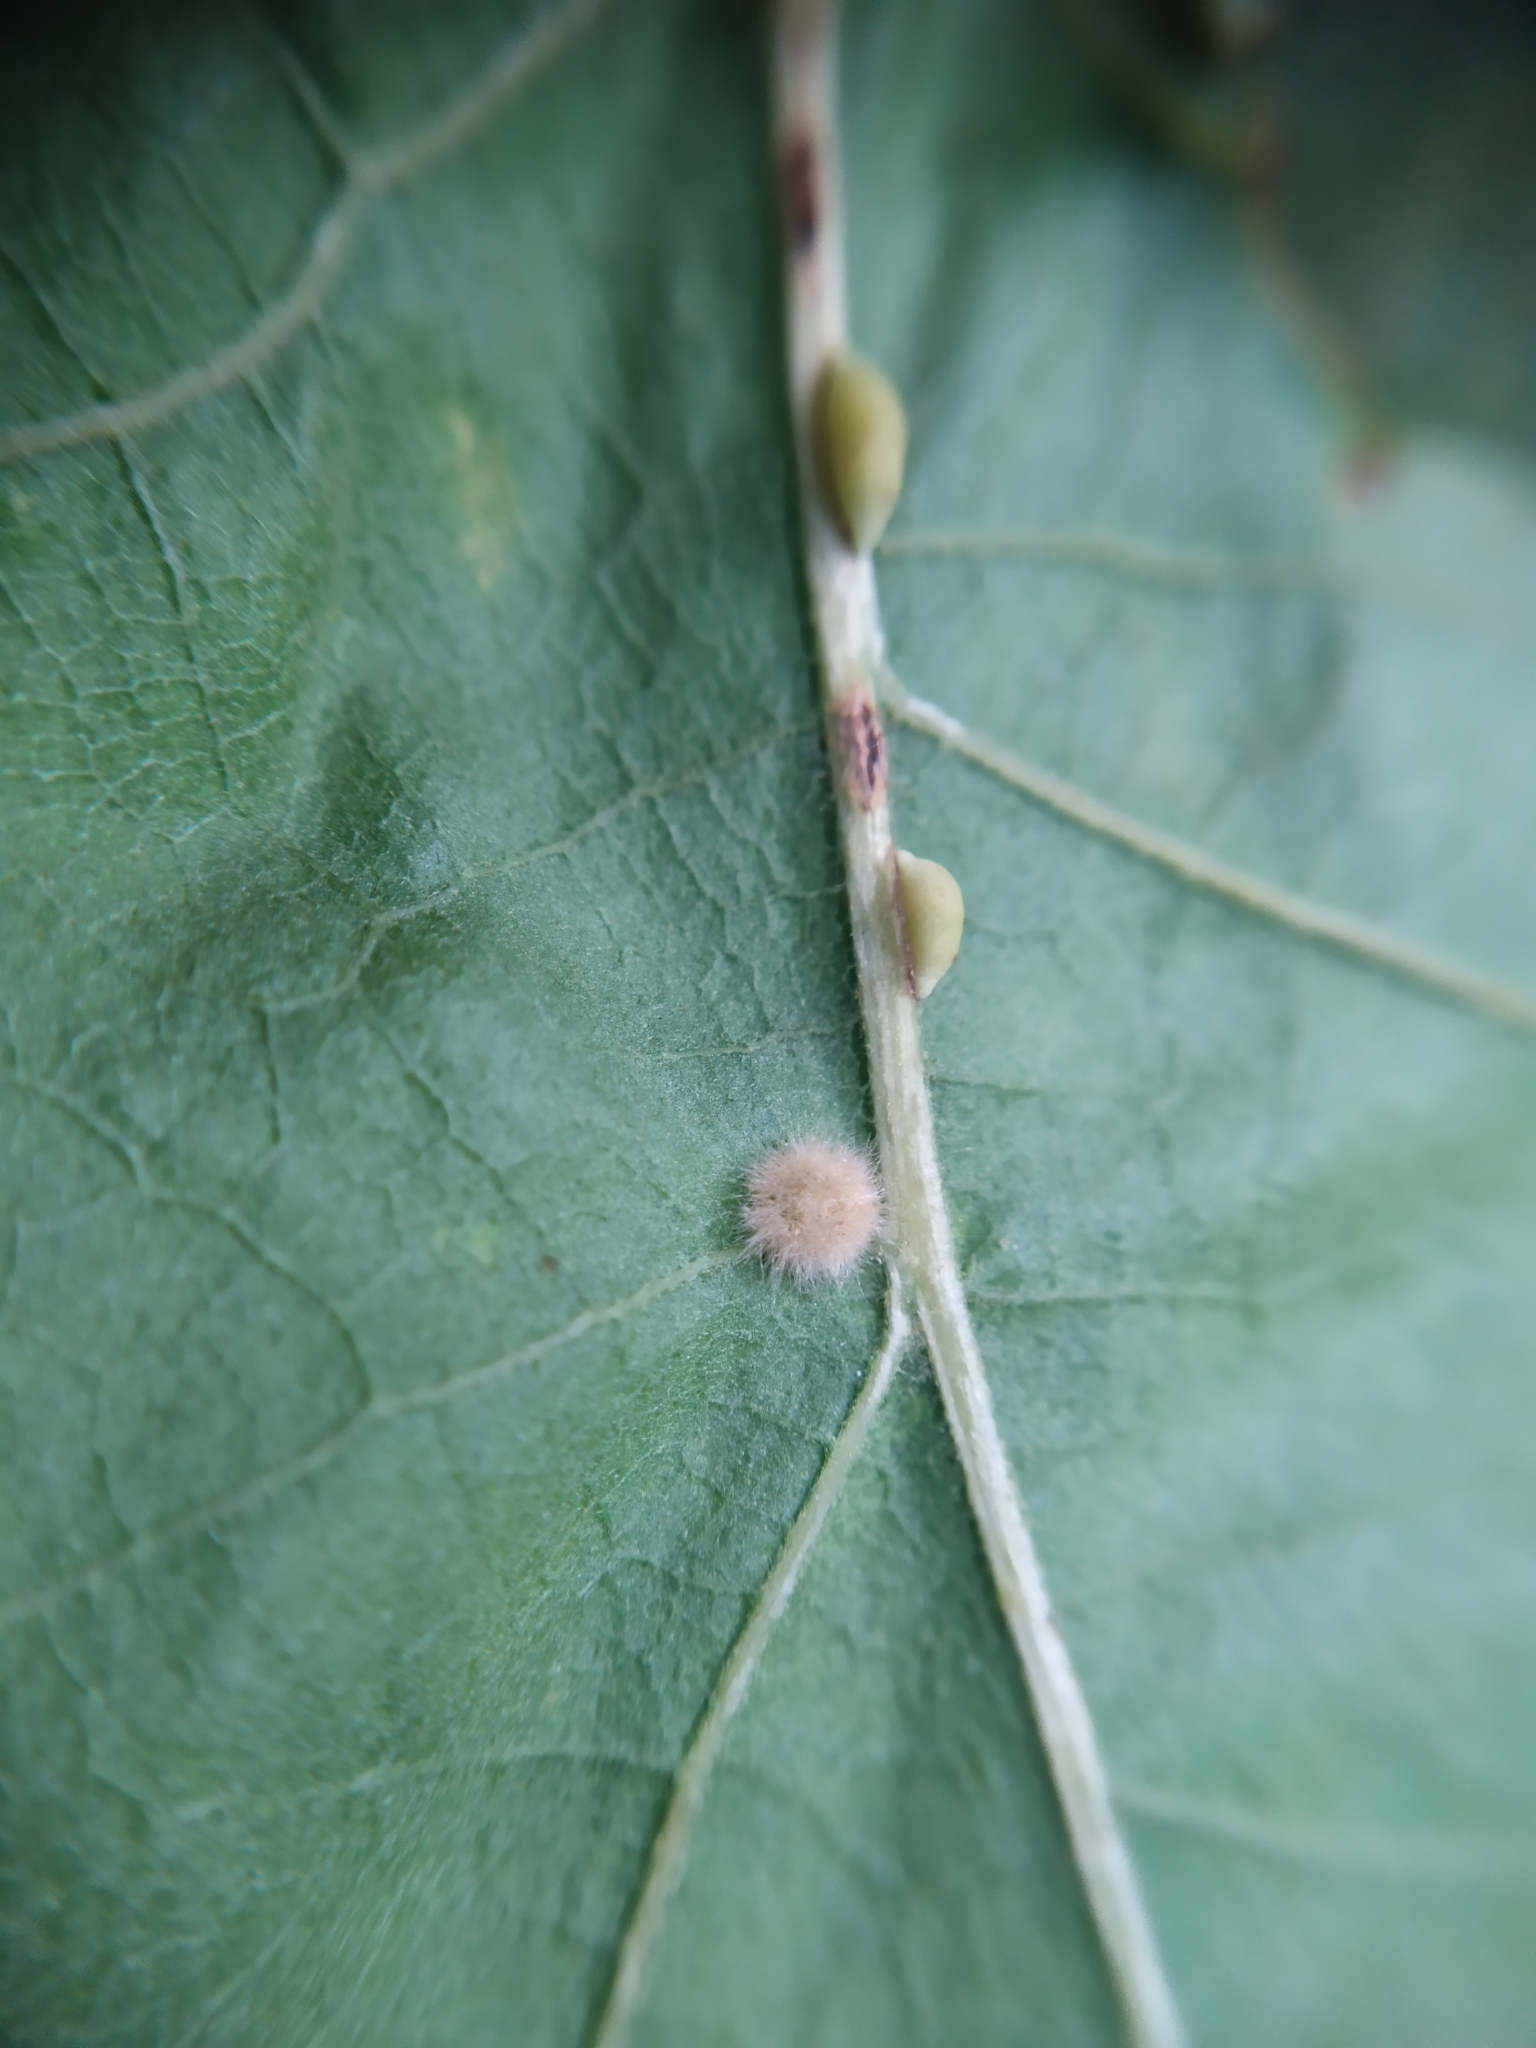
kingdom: Animalia
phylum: Arthropoda
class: Insecta
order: Diptera
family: Cecidomyiidae
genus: Dryomyia
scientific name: Dryomyia circinans
